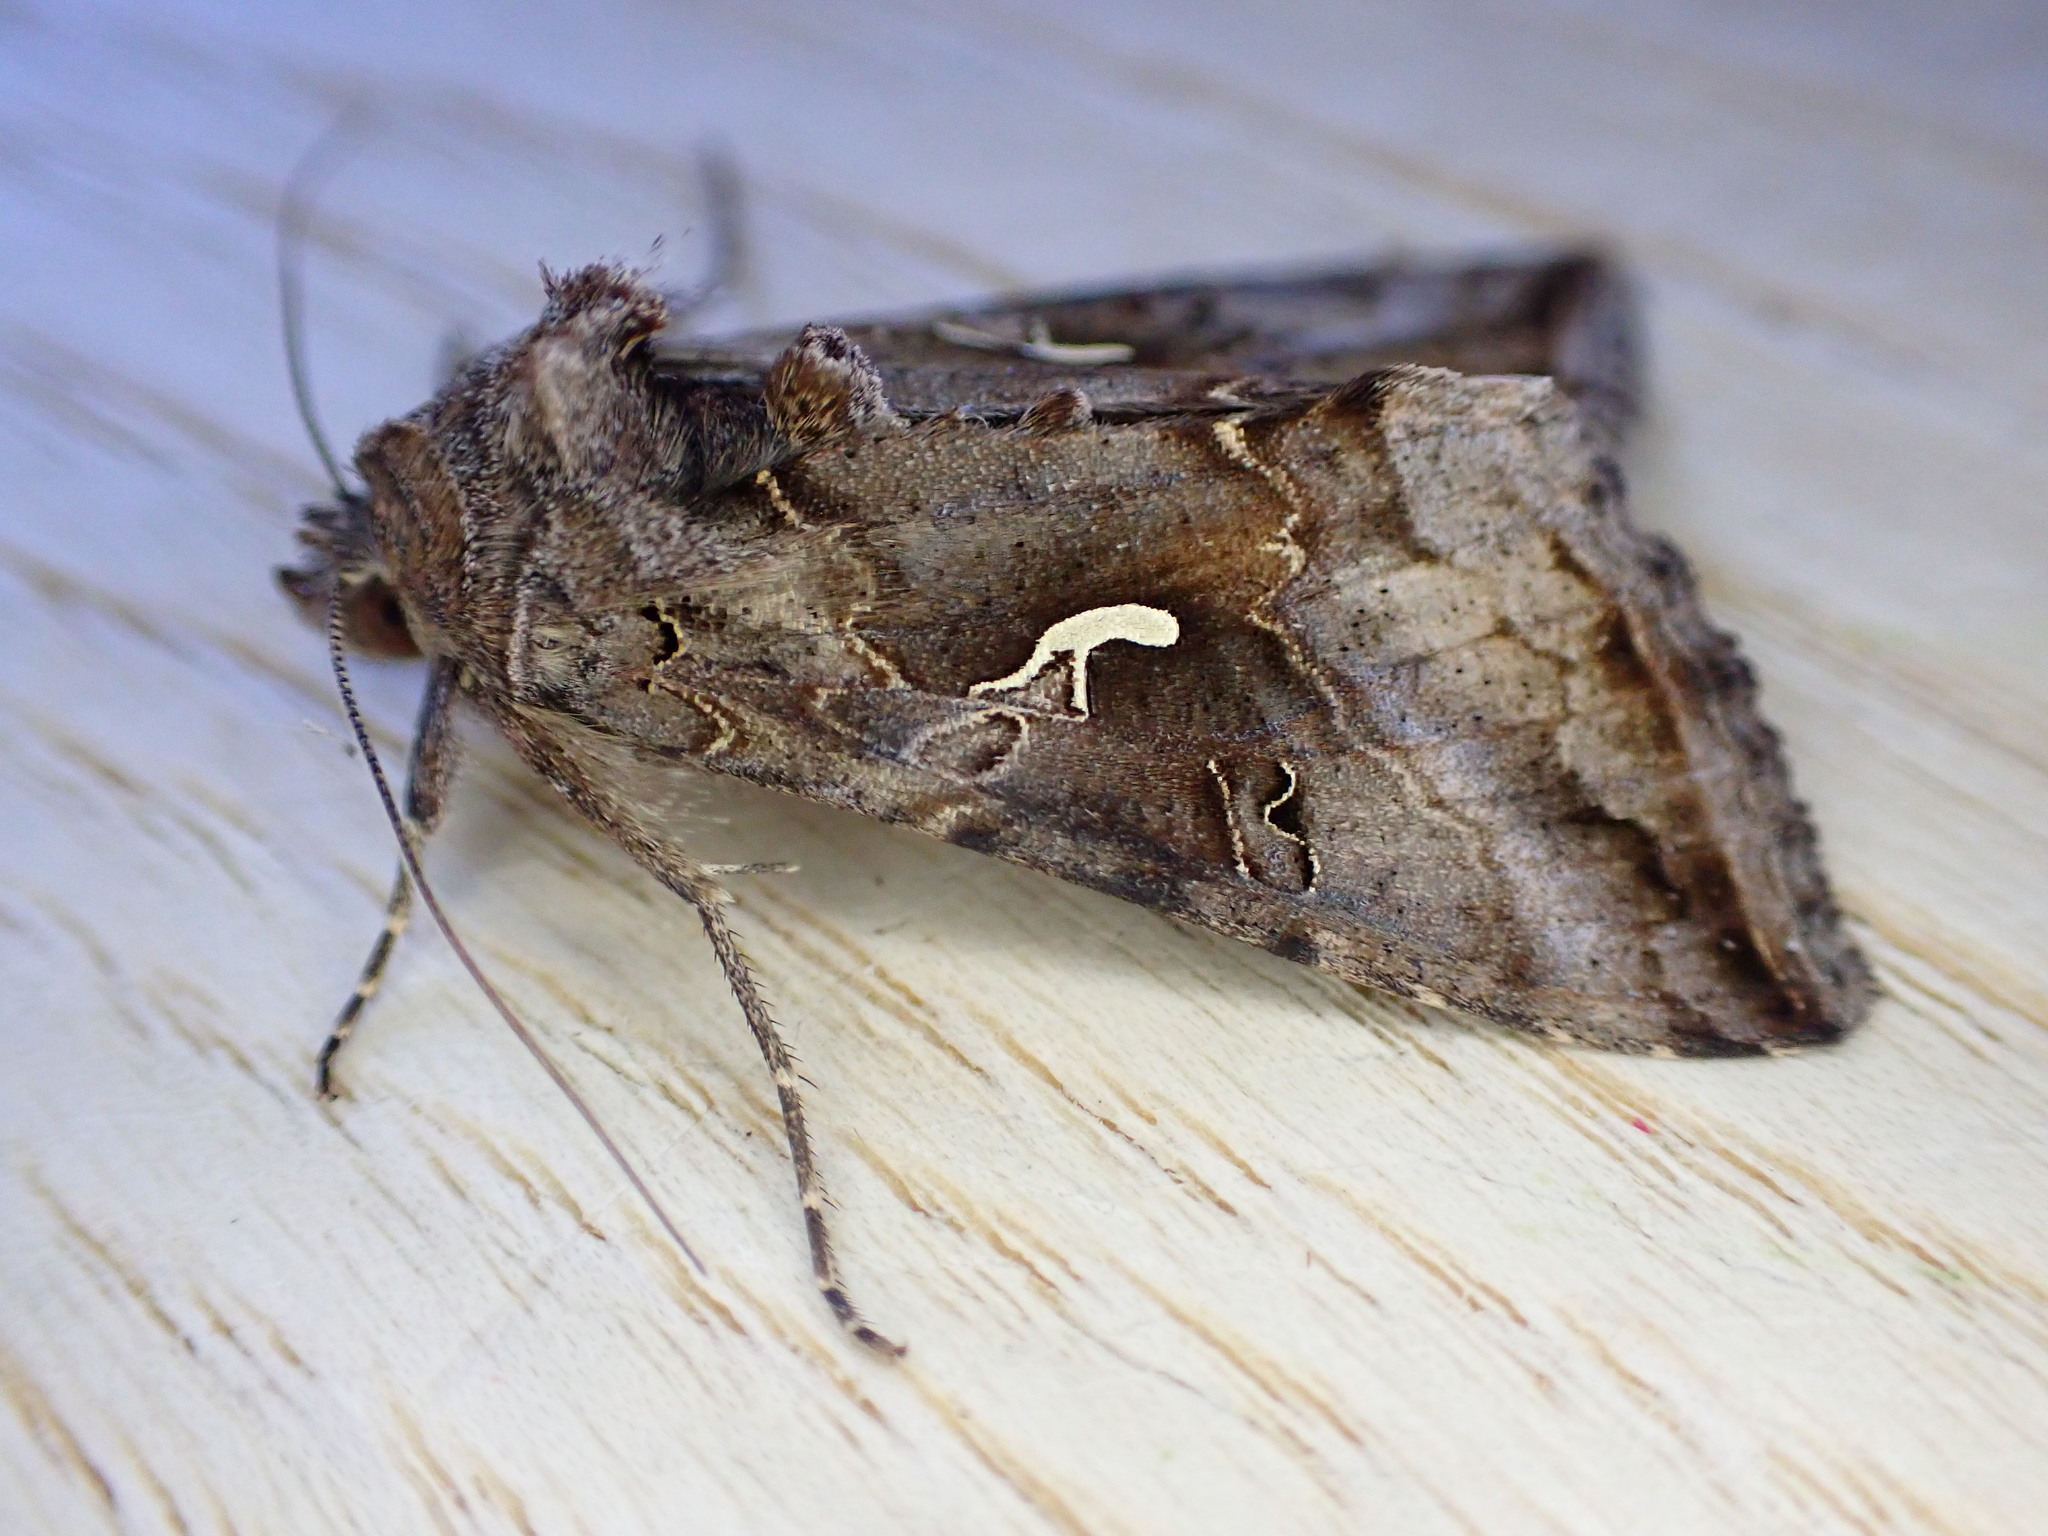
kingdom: Animalia
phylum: Arthropoda
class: Insecta
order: Lepidoptera
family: Noctuidae
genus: Autographa
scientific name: Autographa gamma
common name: Silver y
